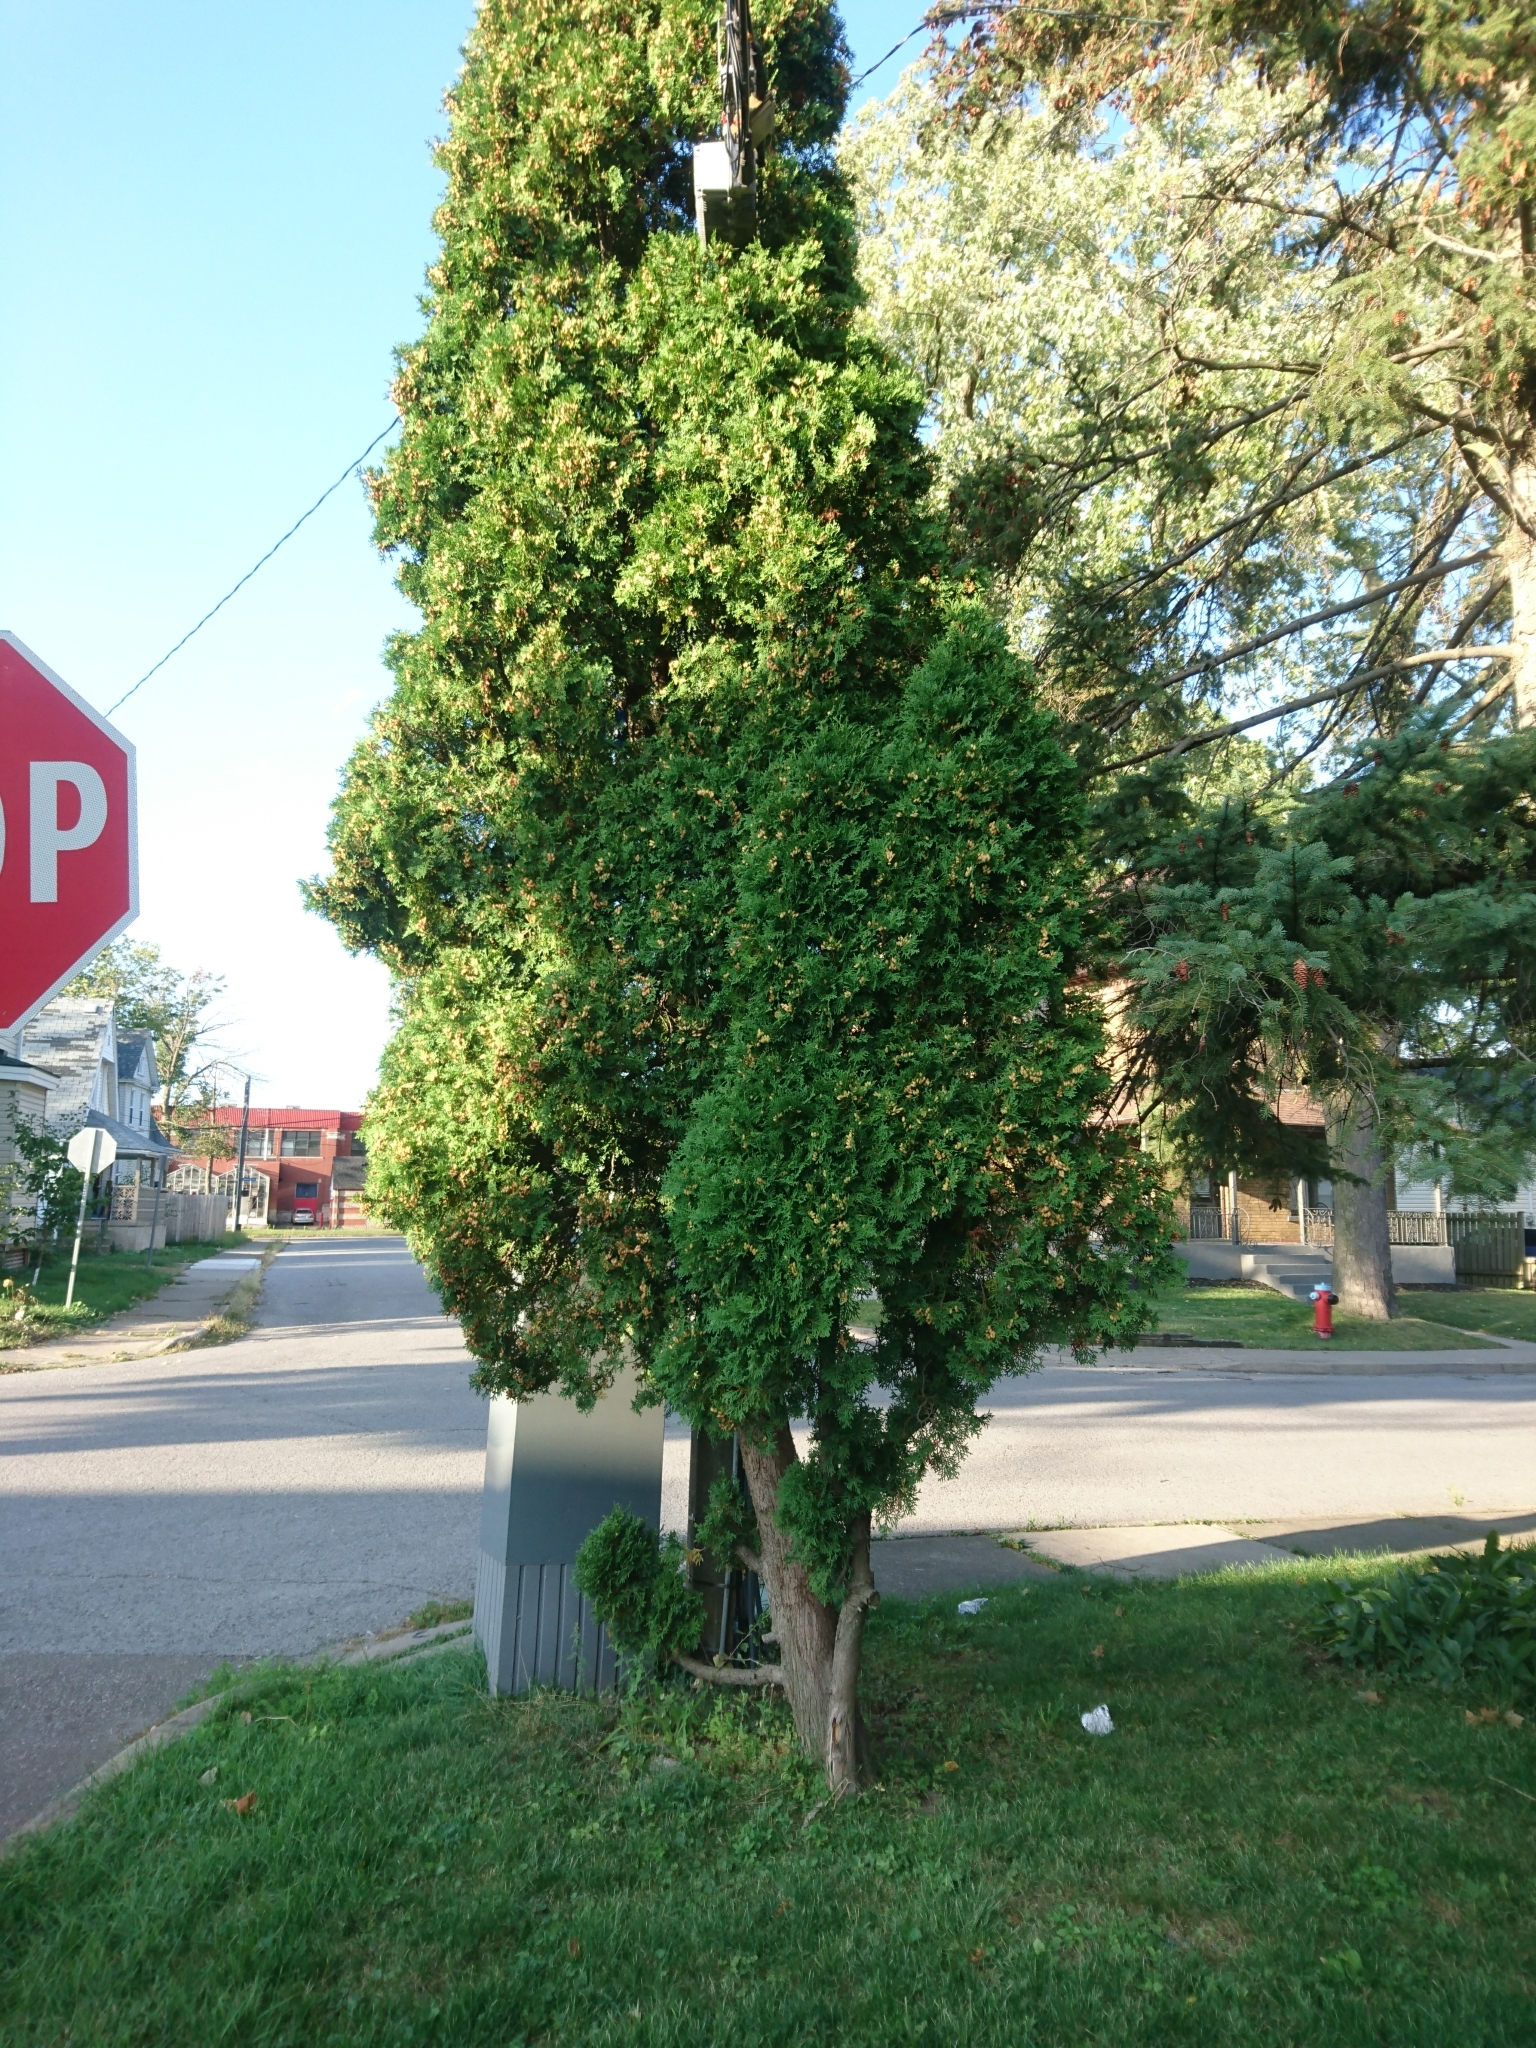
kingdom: Plantae
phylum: Tracheophyta
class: Pinopsida
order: Pinales
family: Cupressaceae
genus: Thuja
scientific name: Thuja occidentalis
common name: Northern white-cedar
